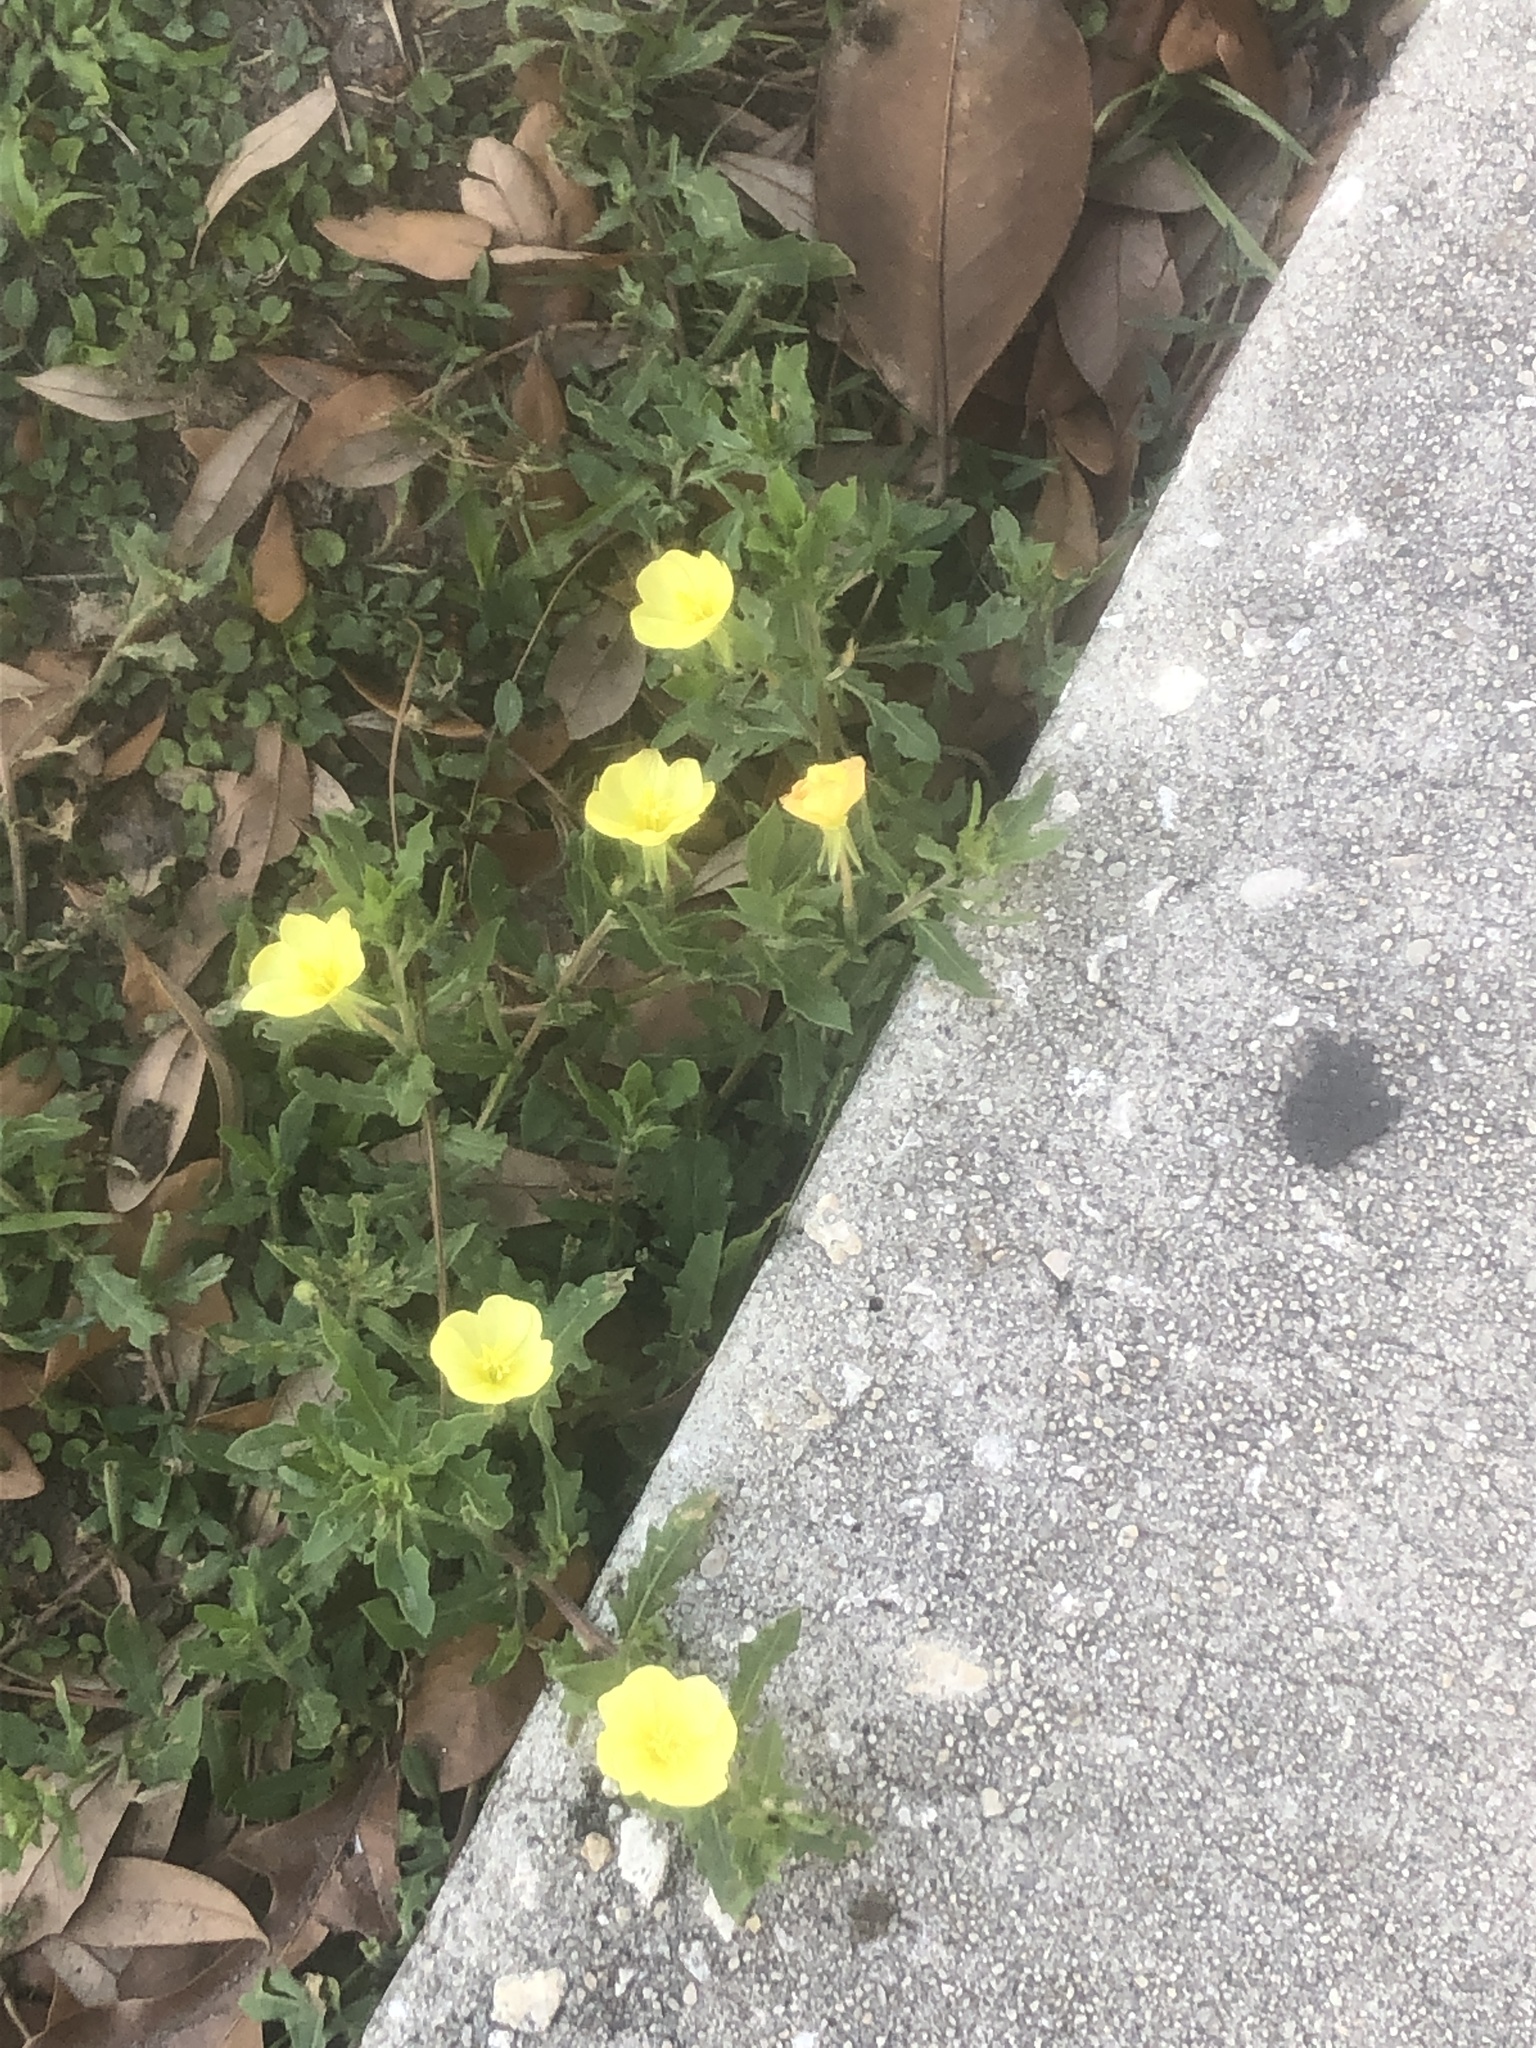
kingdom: Plantae
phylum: Tracheophyta
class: Magnoliopsida
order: Myrtales
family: Onagraceae
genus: Oenothera
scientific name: Oenothera laciniata
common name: Cut-leaved evening-primrose
